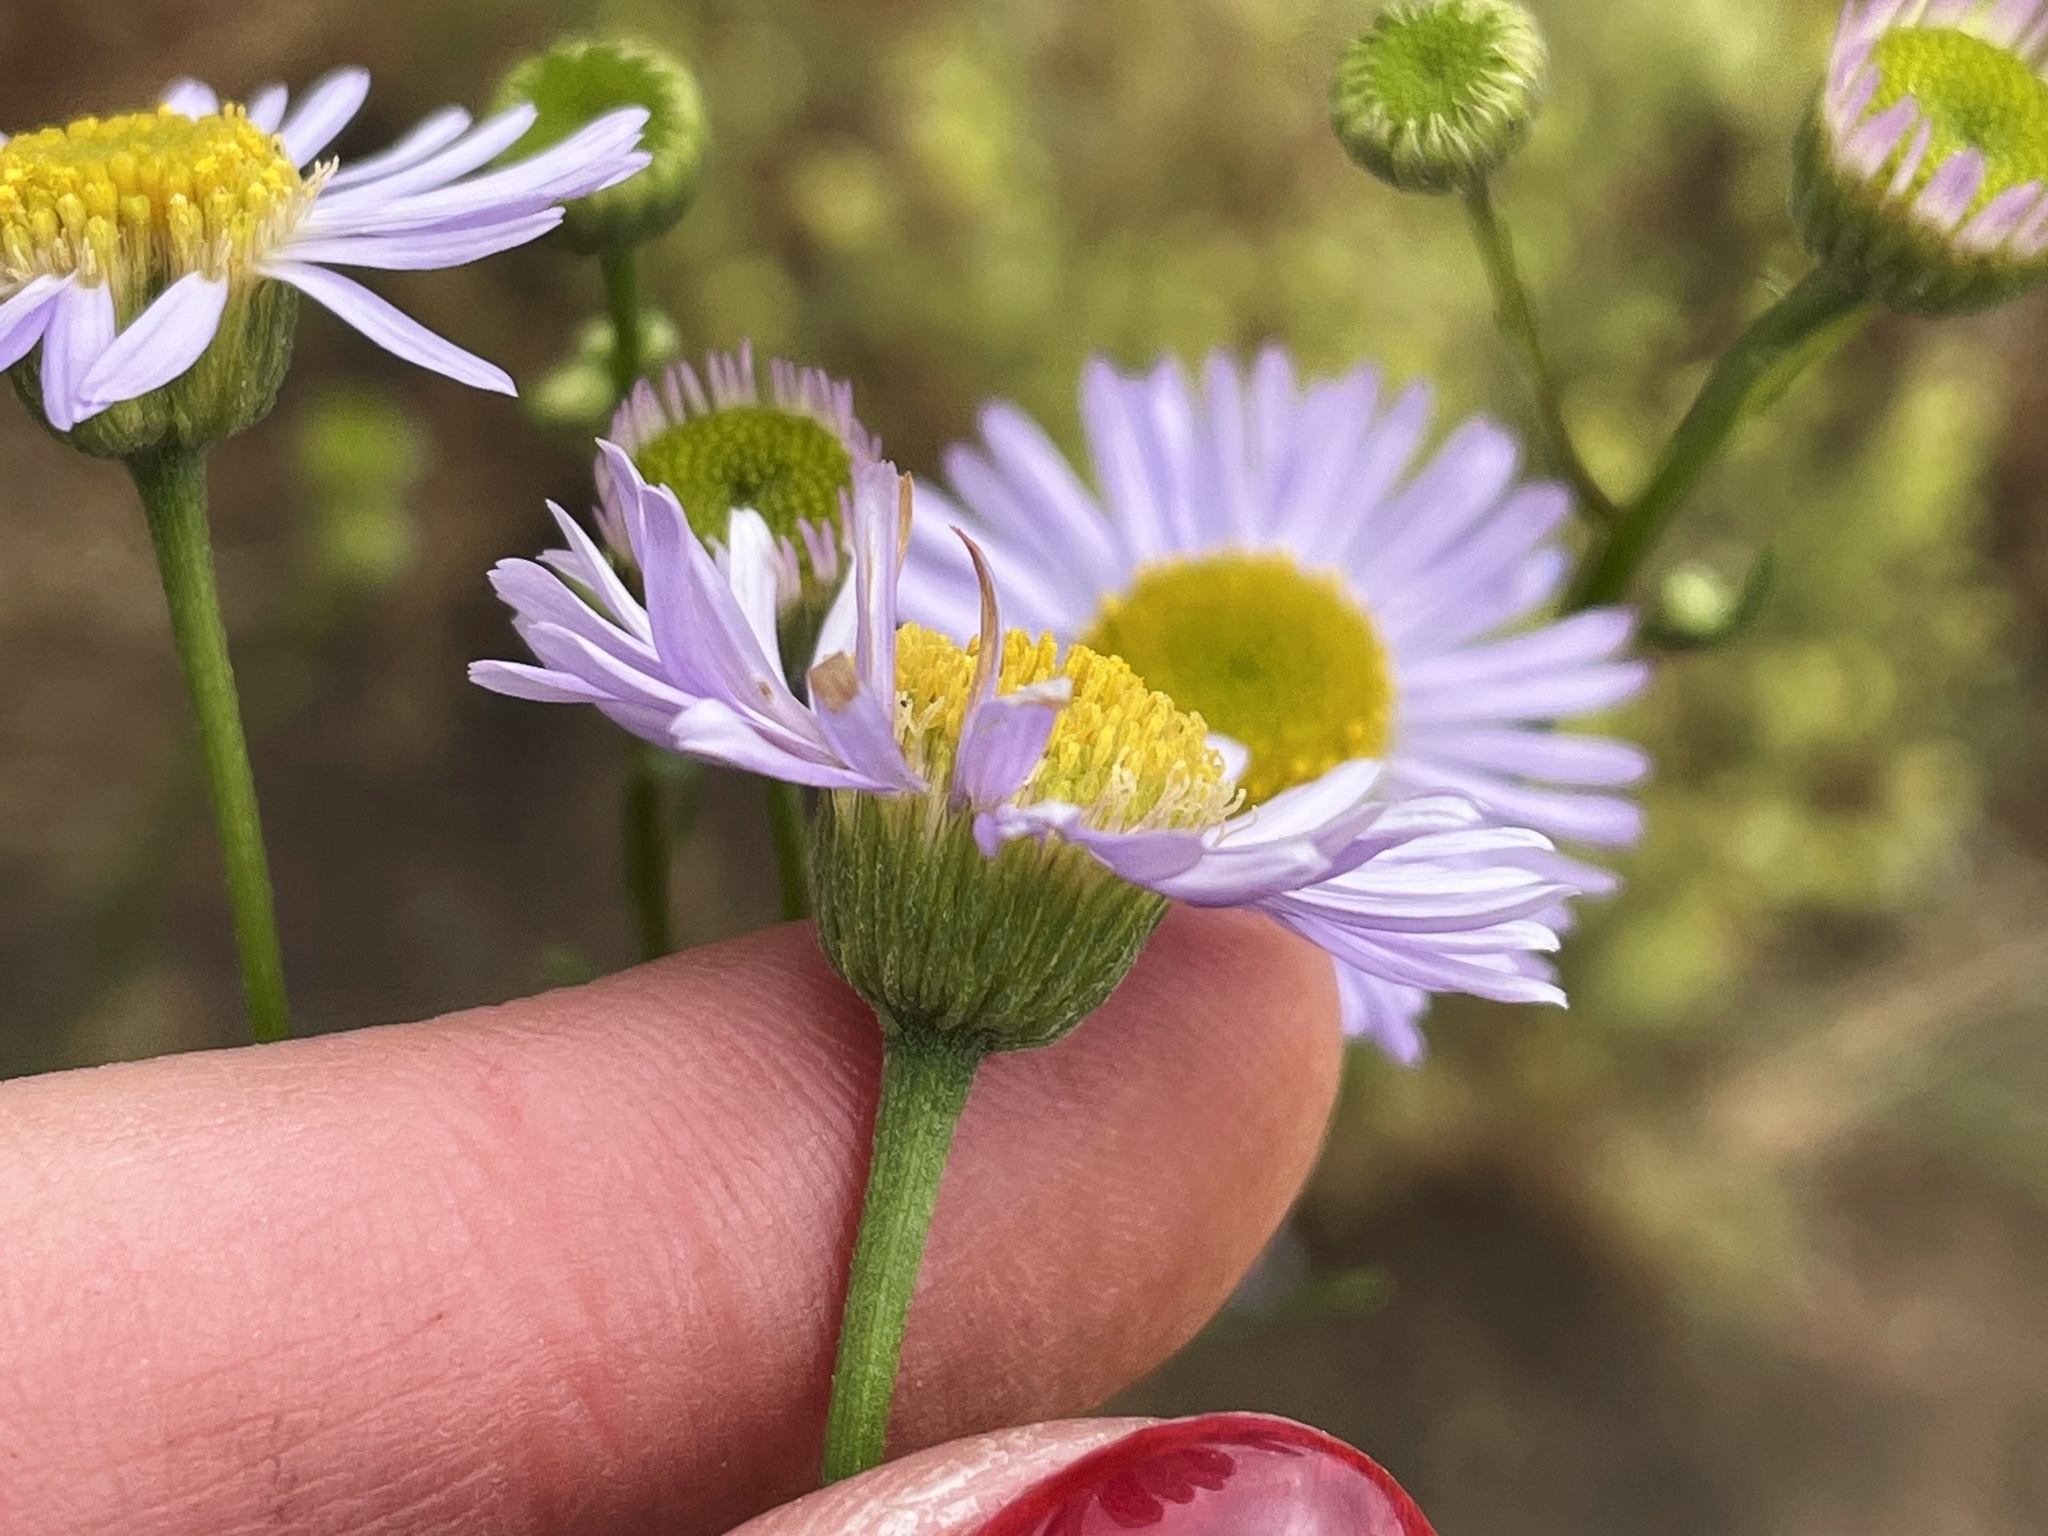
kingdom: Plantae
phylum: Tracheophyta
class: Magnoliopsida
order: Asterales
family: Asteraceae
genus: Erigeron
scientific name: Erigeron foliosus
